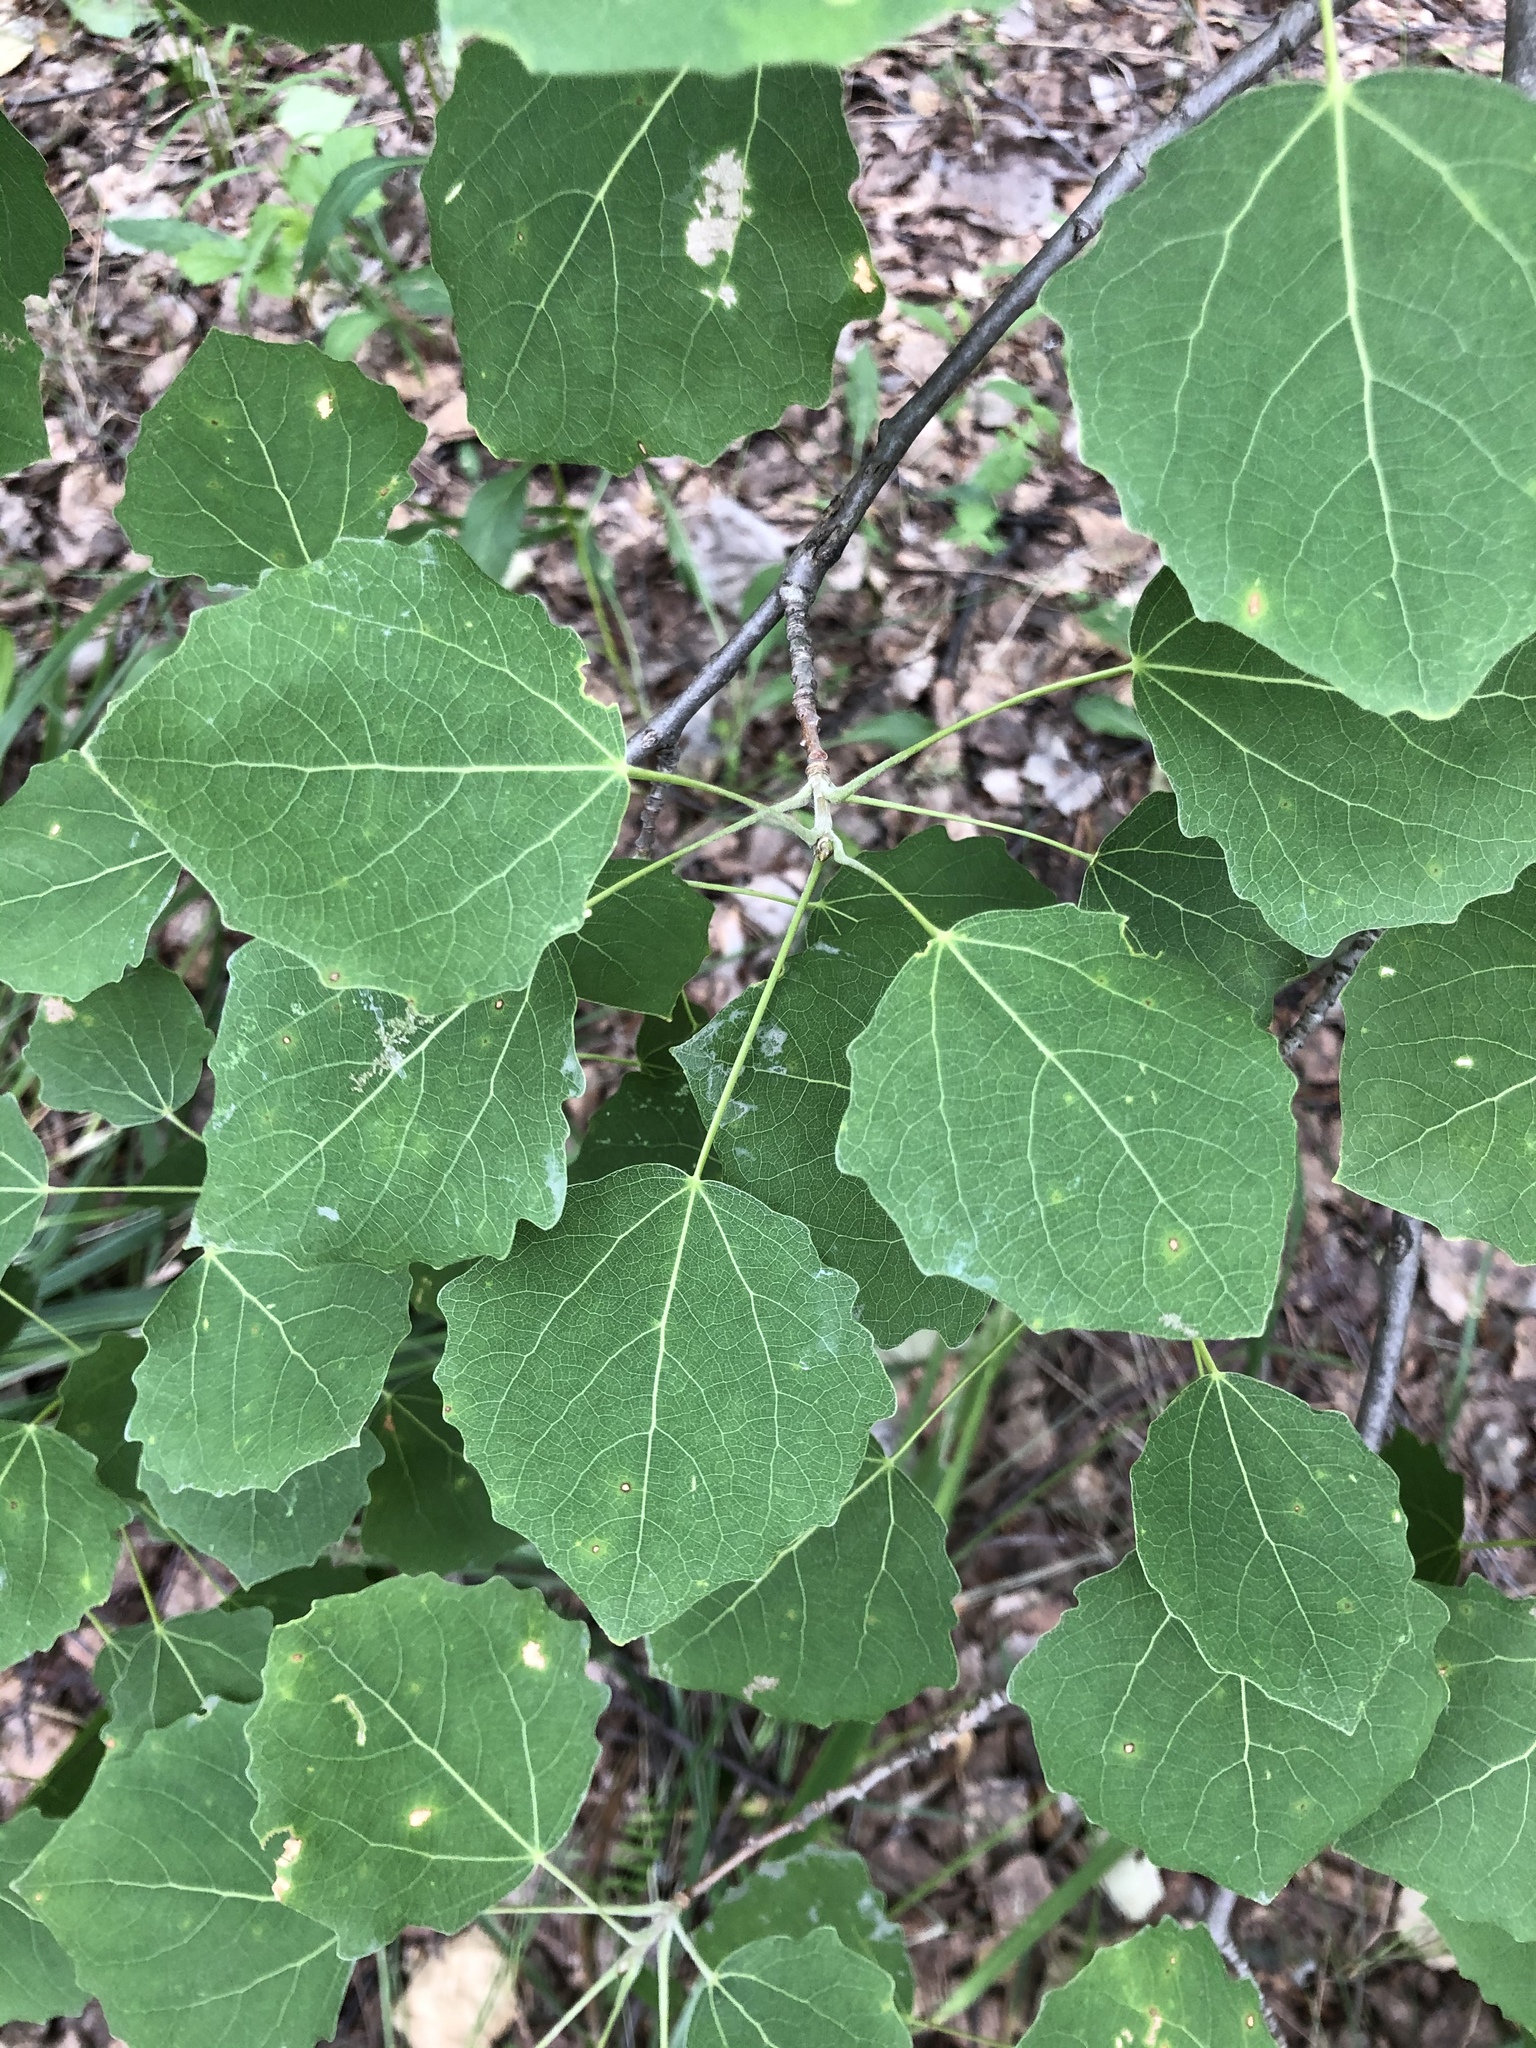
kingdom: Plantae
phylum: Tracheophyta
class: Magnoliopsida
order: Malpighiales
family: Salicaceae
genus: Populus
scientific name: Populus tremula
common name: European aspen
